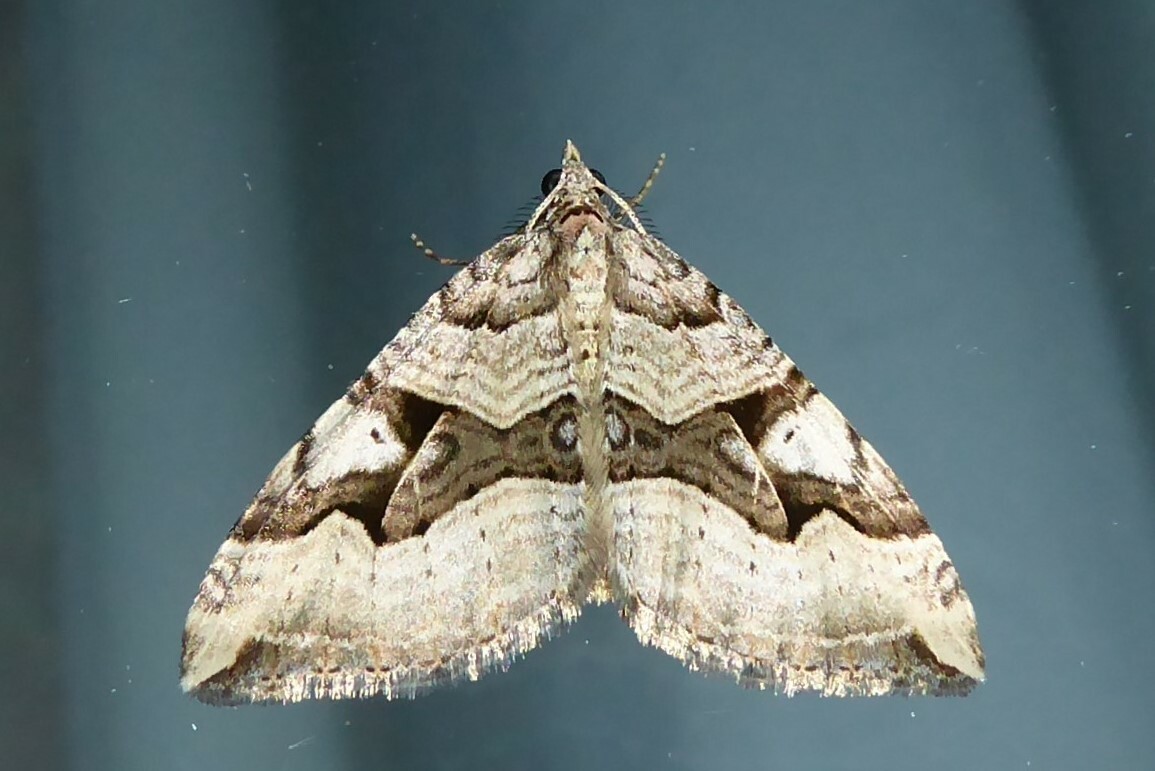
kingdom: Animalia
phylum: Arthropoda
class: Insecta
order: Lepidoptera
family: Geometridae
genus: Xanthorhoe
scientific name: Xanthorhoe semifissata
